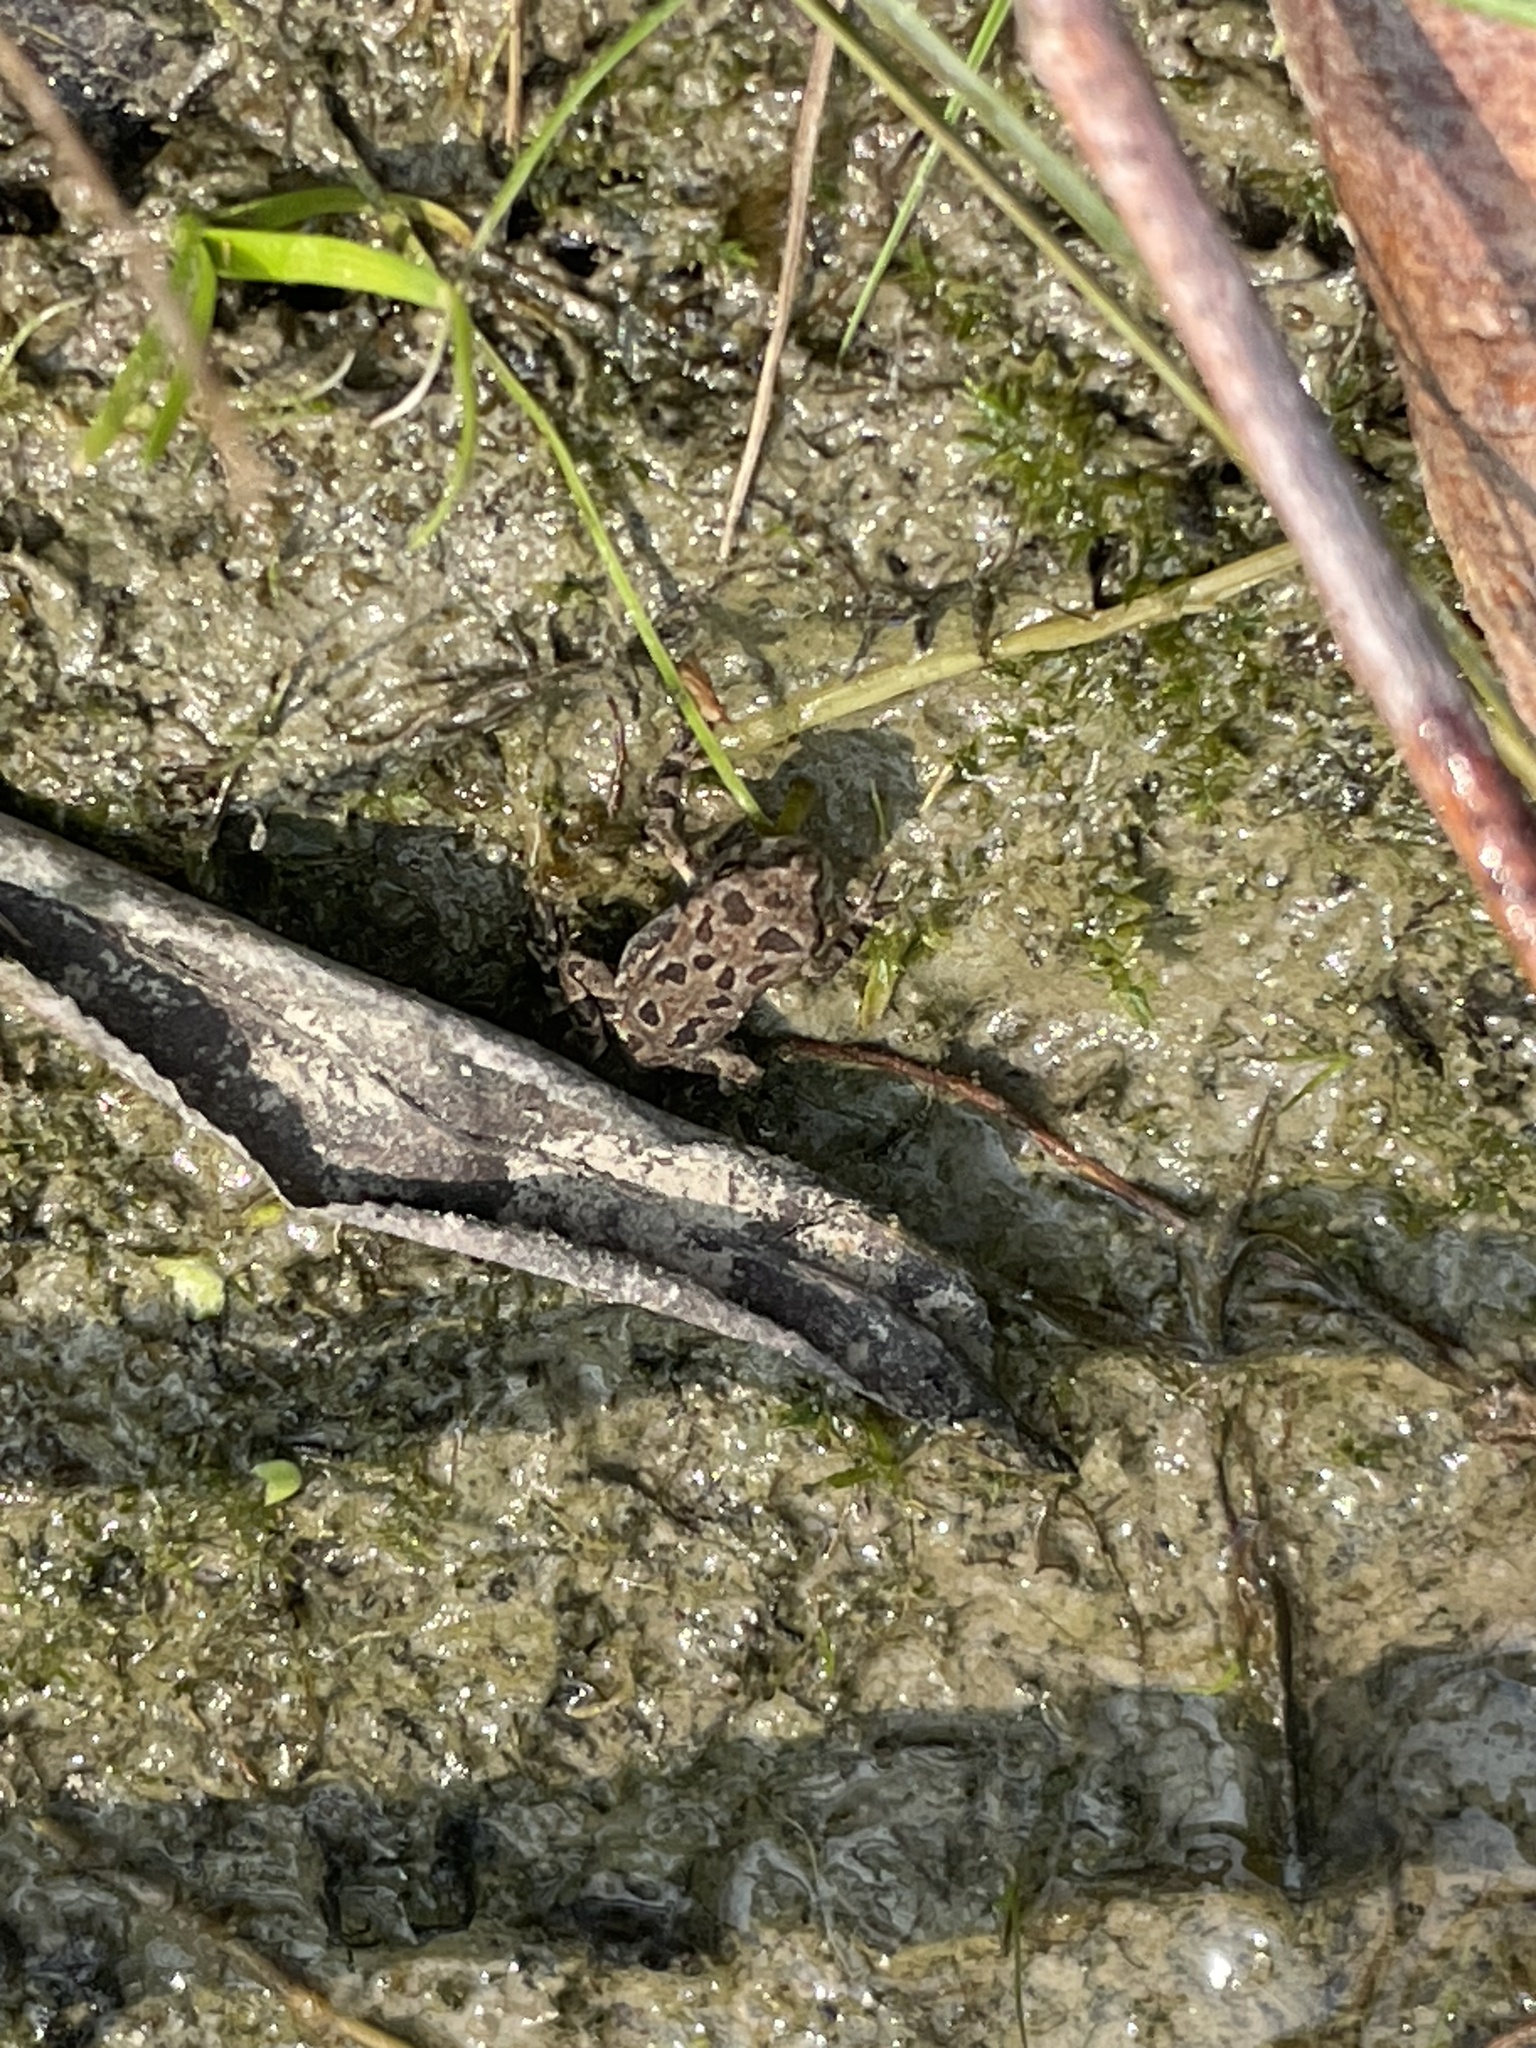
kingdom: Animalia
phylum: Chordata
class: Amphibia
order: Anura
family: Bufonidae
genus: Anaxyrus
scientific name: Anaxyrus fowleri
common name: Fowler's toad
